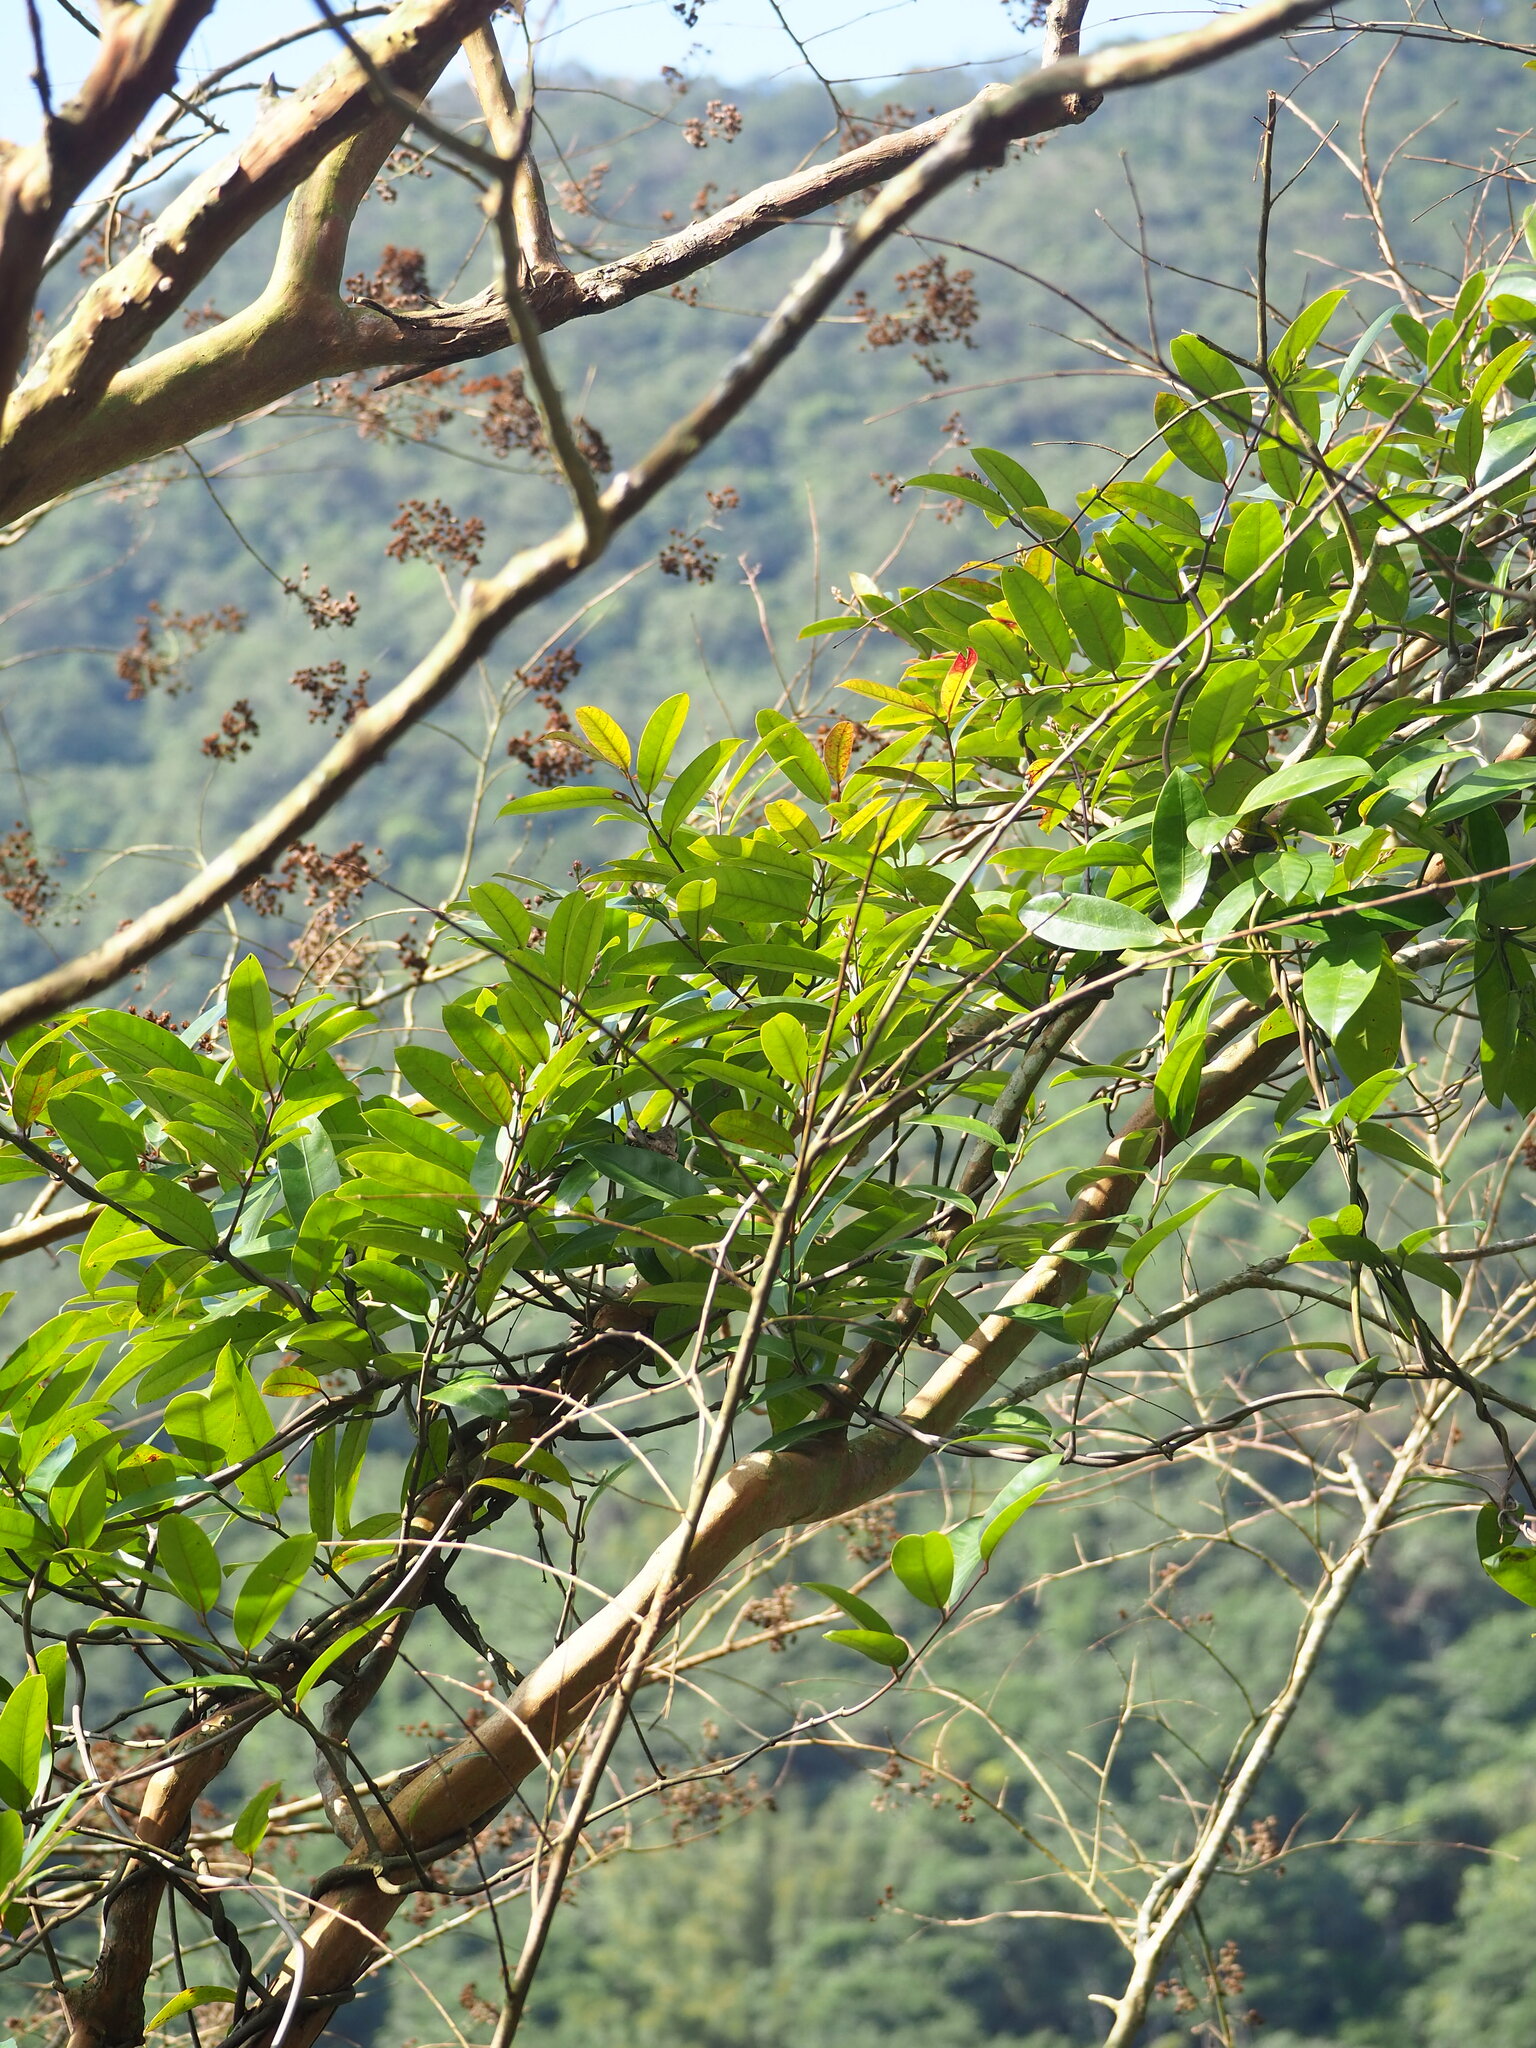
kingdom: Plantae
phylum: Tracheophyta
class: Magnoliopsida
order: Gentianales
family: Apocynaceae
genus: Anodendron
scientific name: Anodendron benthamianum
